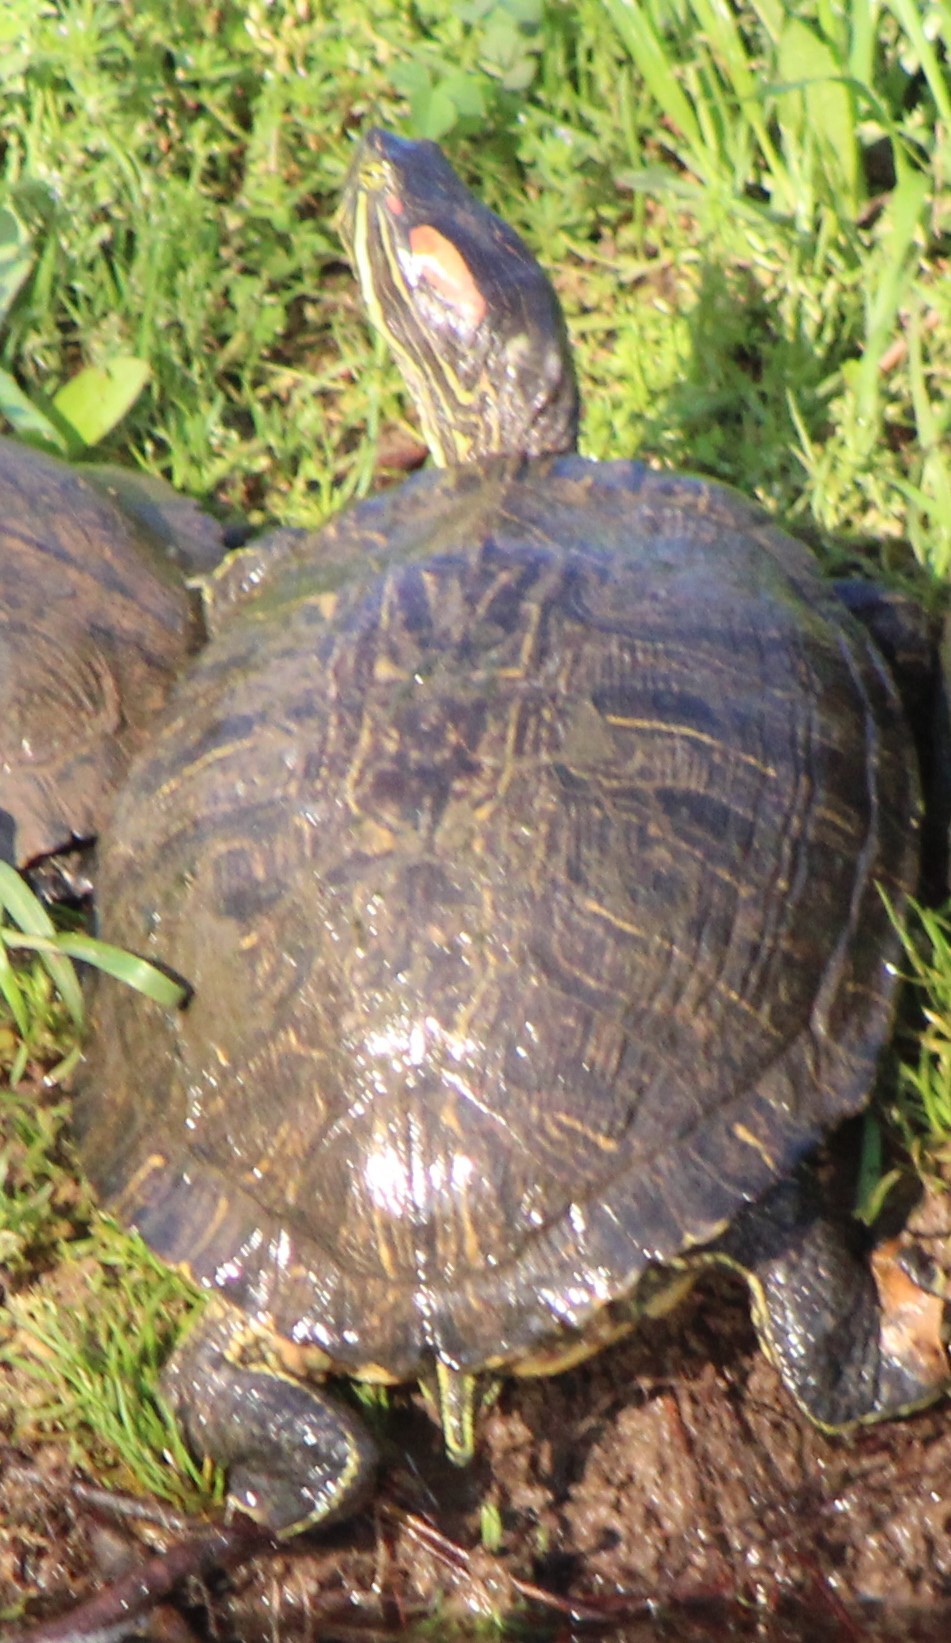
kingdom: Animalia
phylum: Chordata
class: Testudines
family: Emydidae
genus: Trachemys
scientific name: Trachemys scripta
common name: Slider
